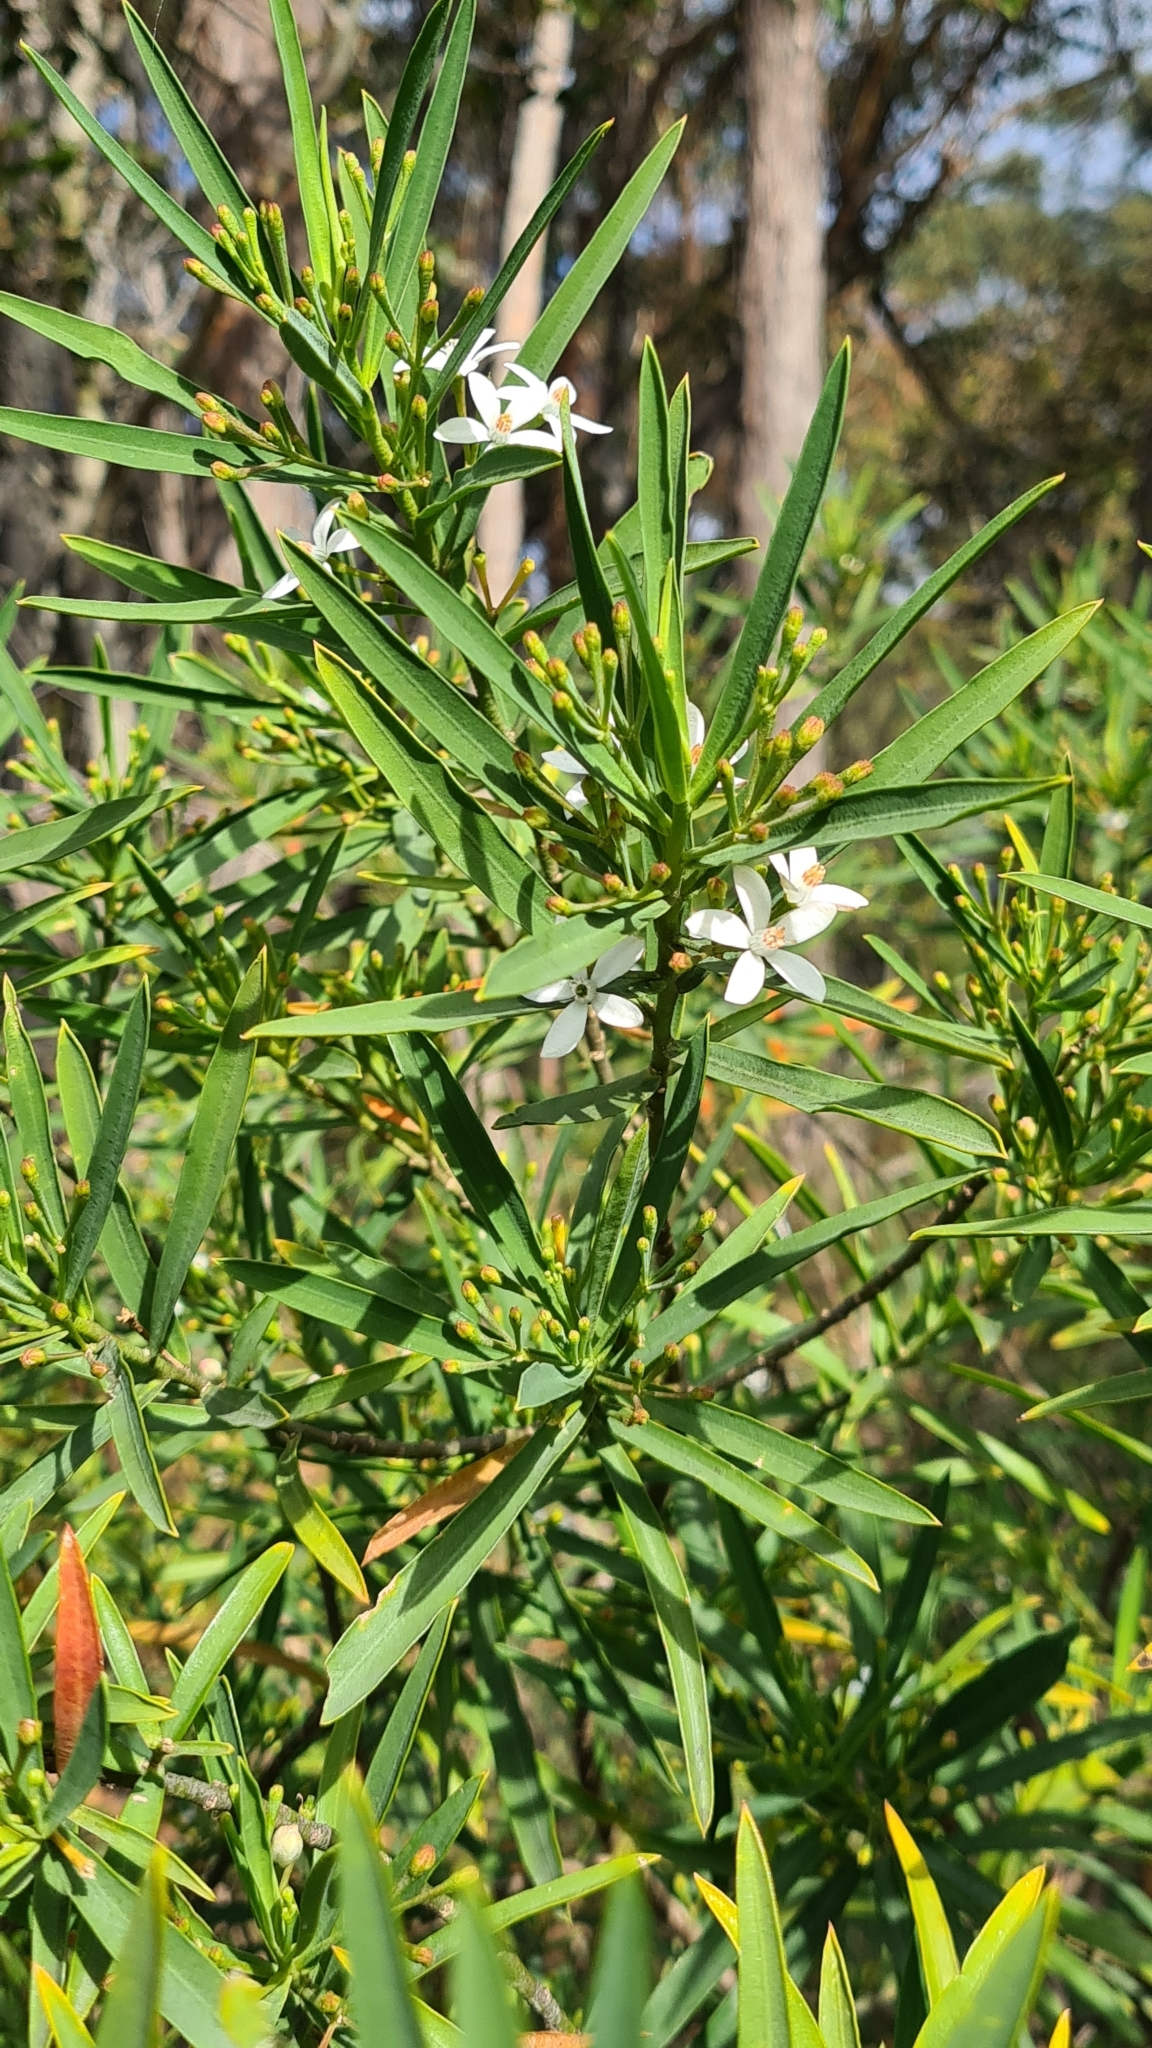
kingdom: Plantae
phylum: Tracheophyta
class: Magnoliopsida
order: Sapindales
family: Rutaceae
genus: Philotheca
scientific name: Philotheca myoporoides
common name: Longleaf waxflower
